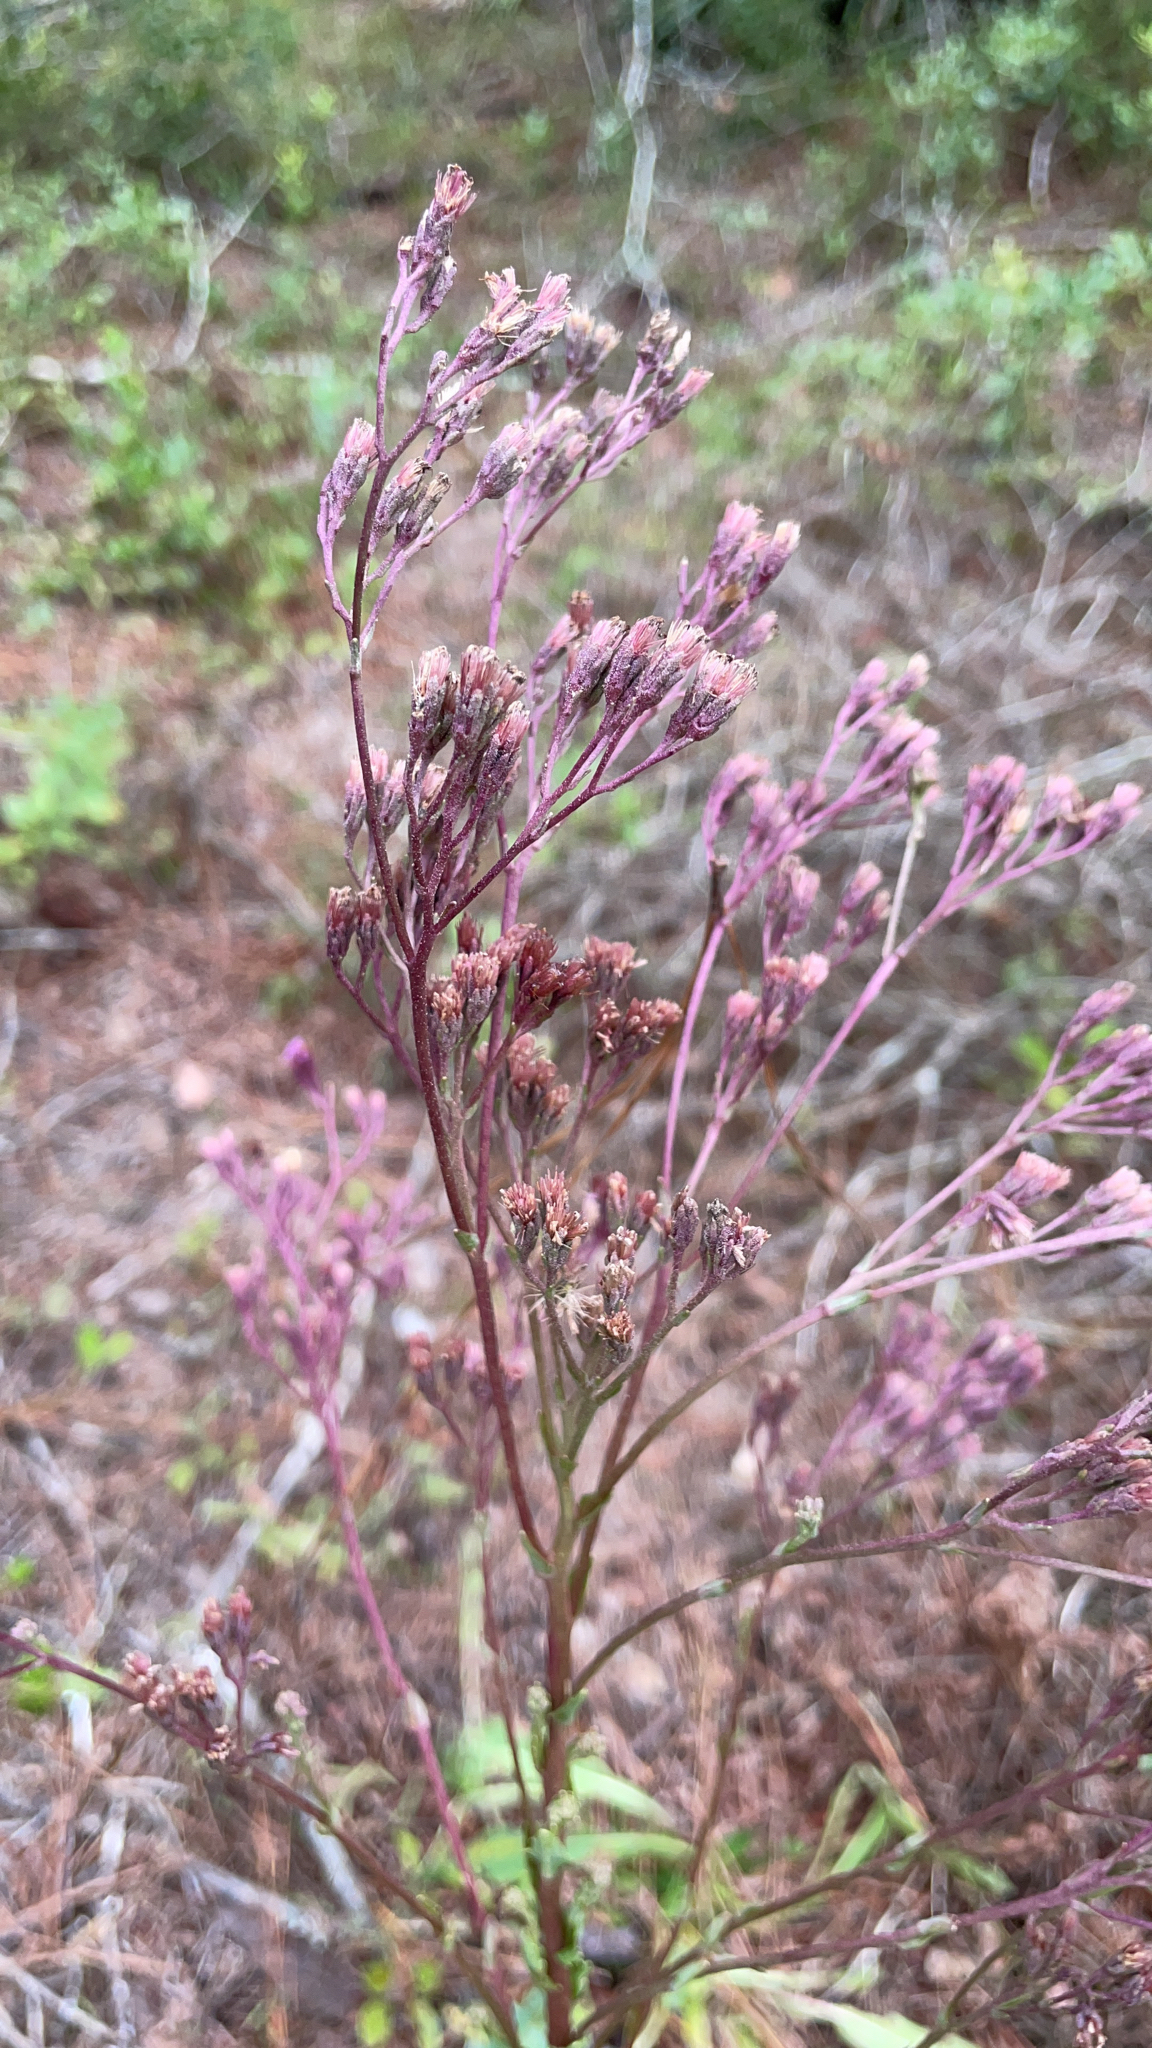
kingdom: Plantae
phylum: Tracheophyta
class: Magnoliopsida
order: Asterales
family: Asteraceae
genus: Carphephorus
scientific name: Carphephorus odoratissimus
